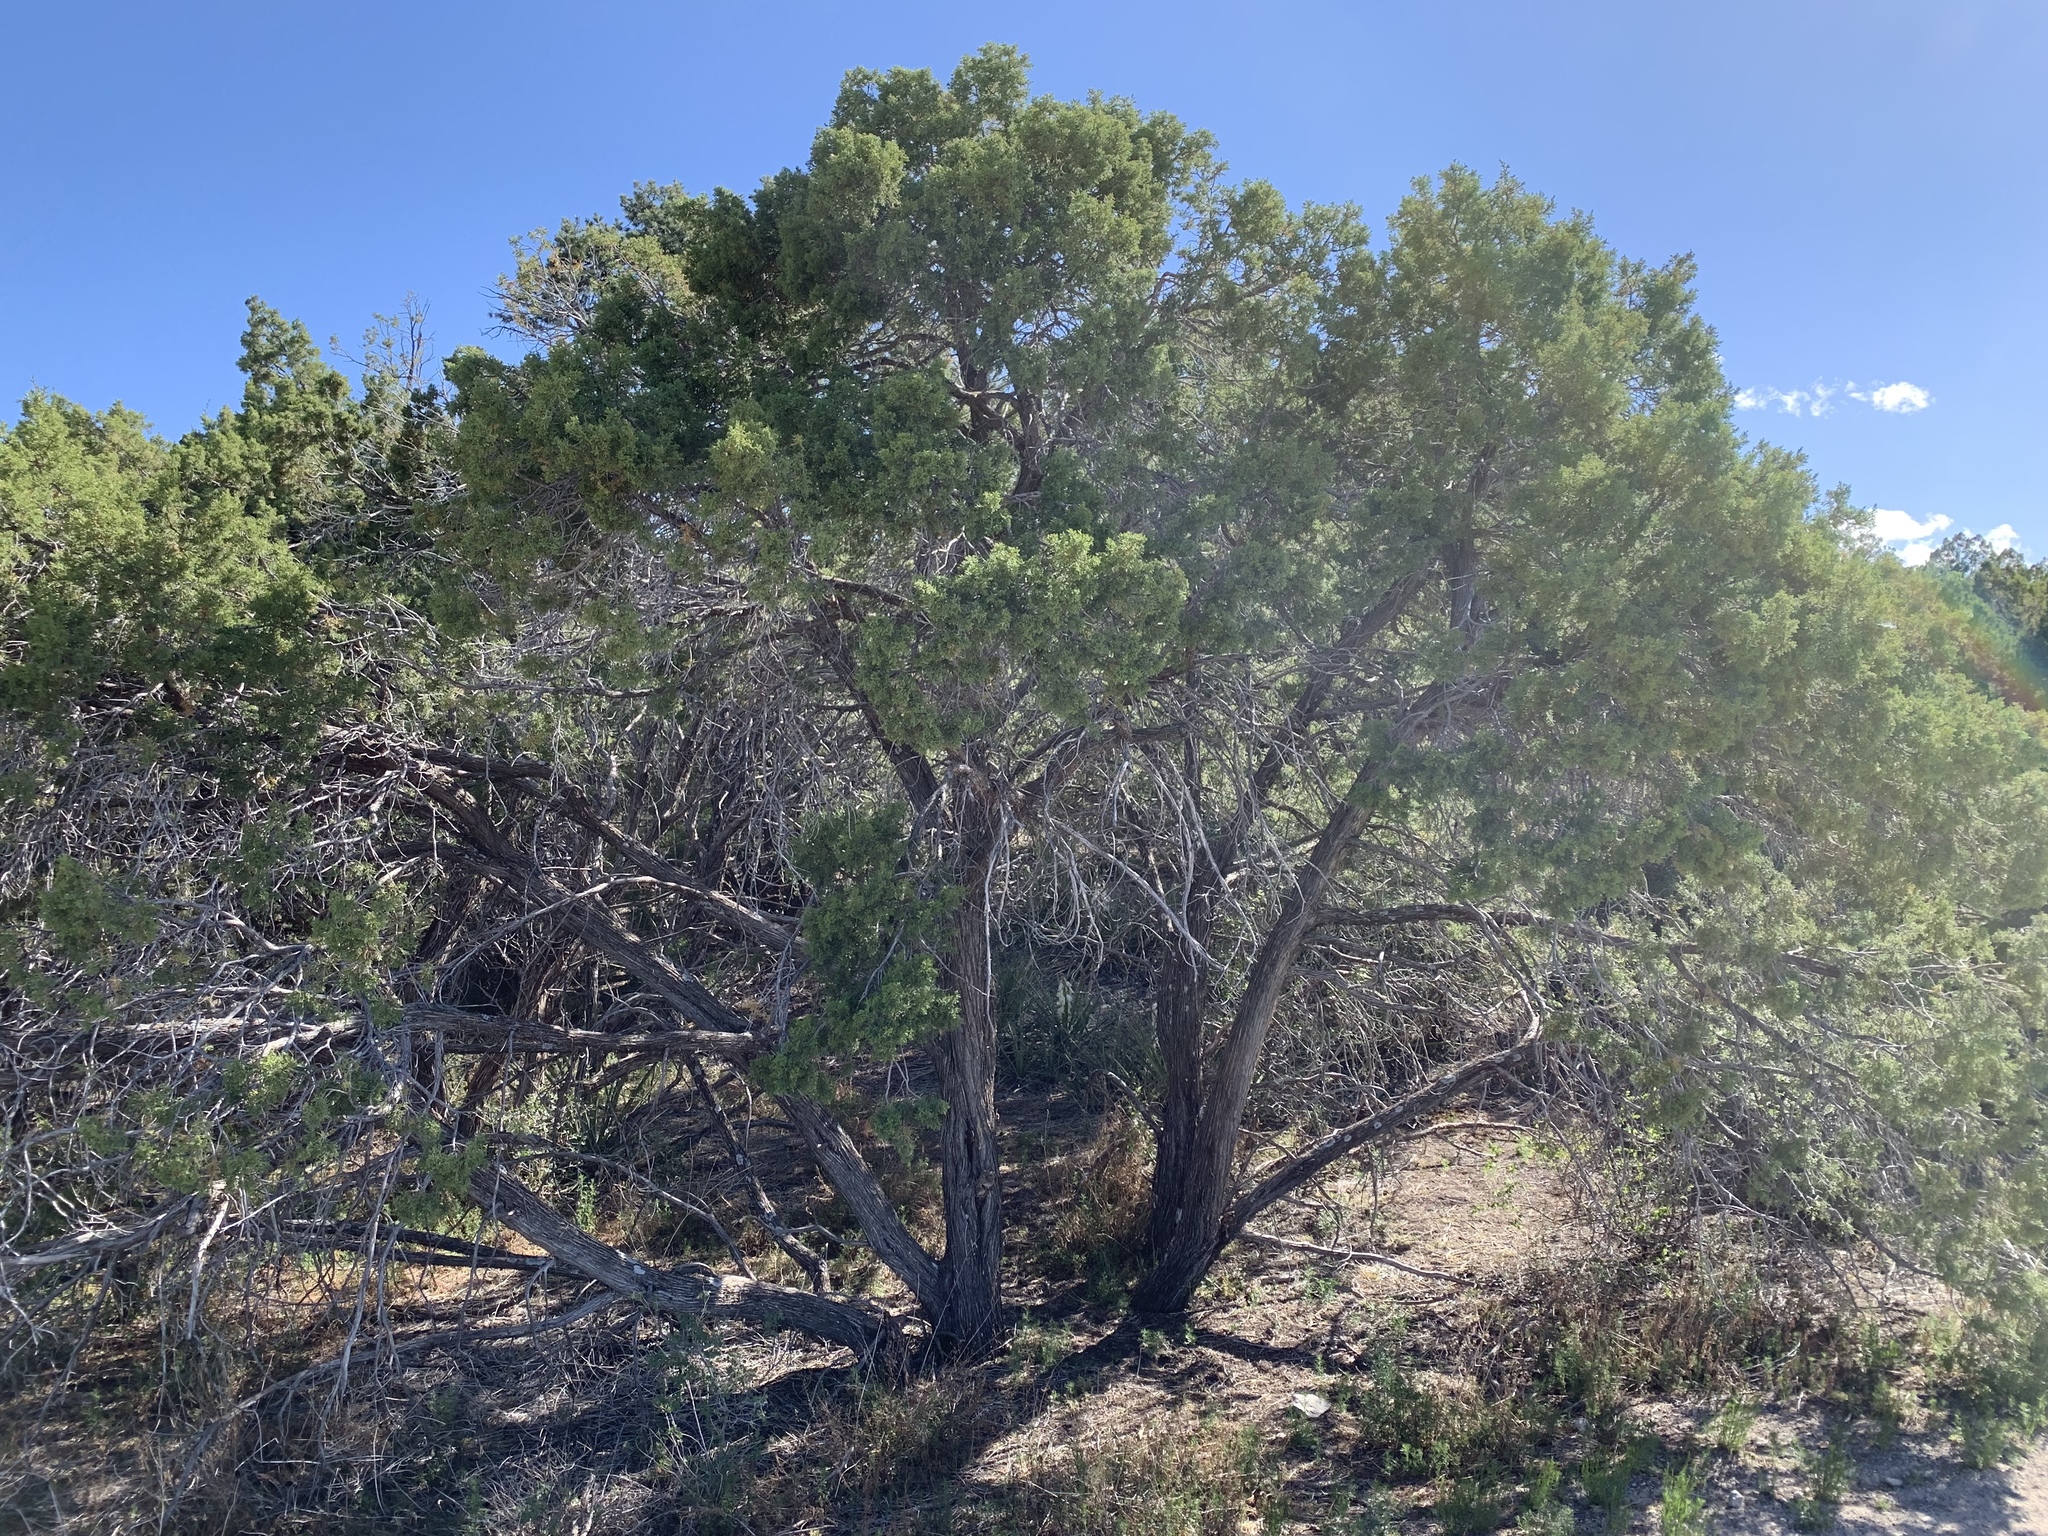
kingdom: Plantae
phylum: Tracheophyta
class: Pinopsida
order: Pinales
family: Cupressaceae
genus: Juniperus
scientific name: Juniperus monosperma
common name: One-seed juniper
